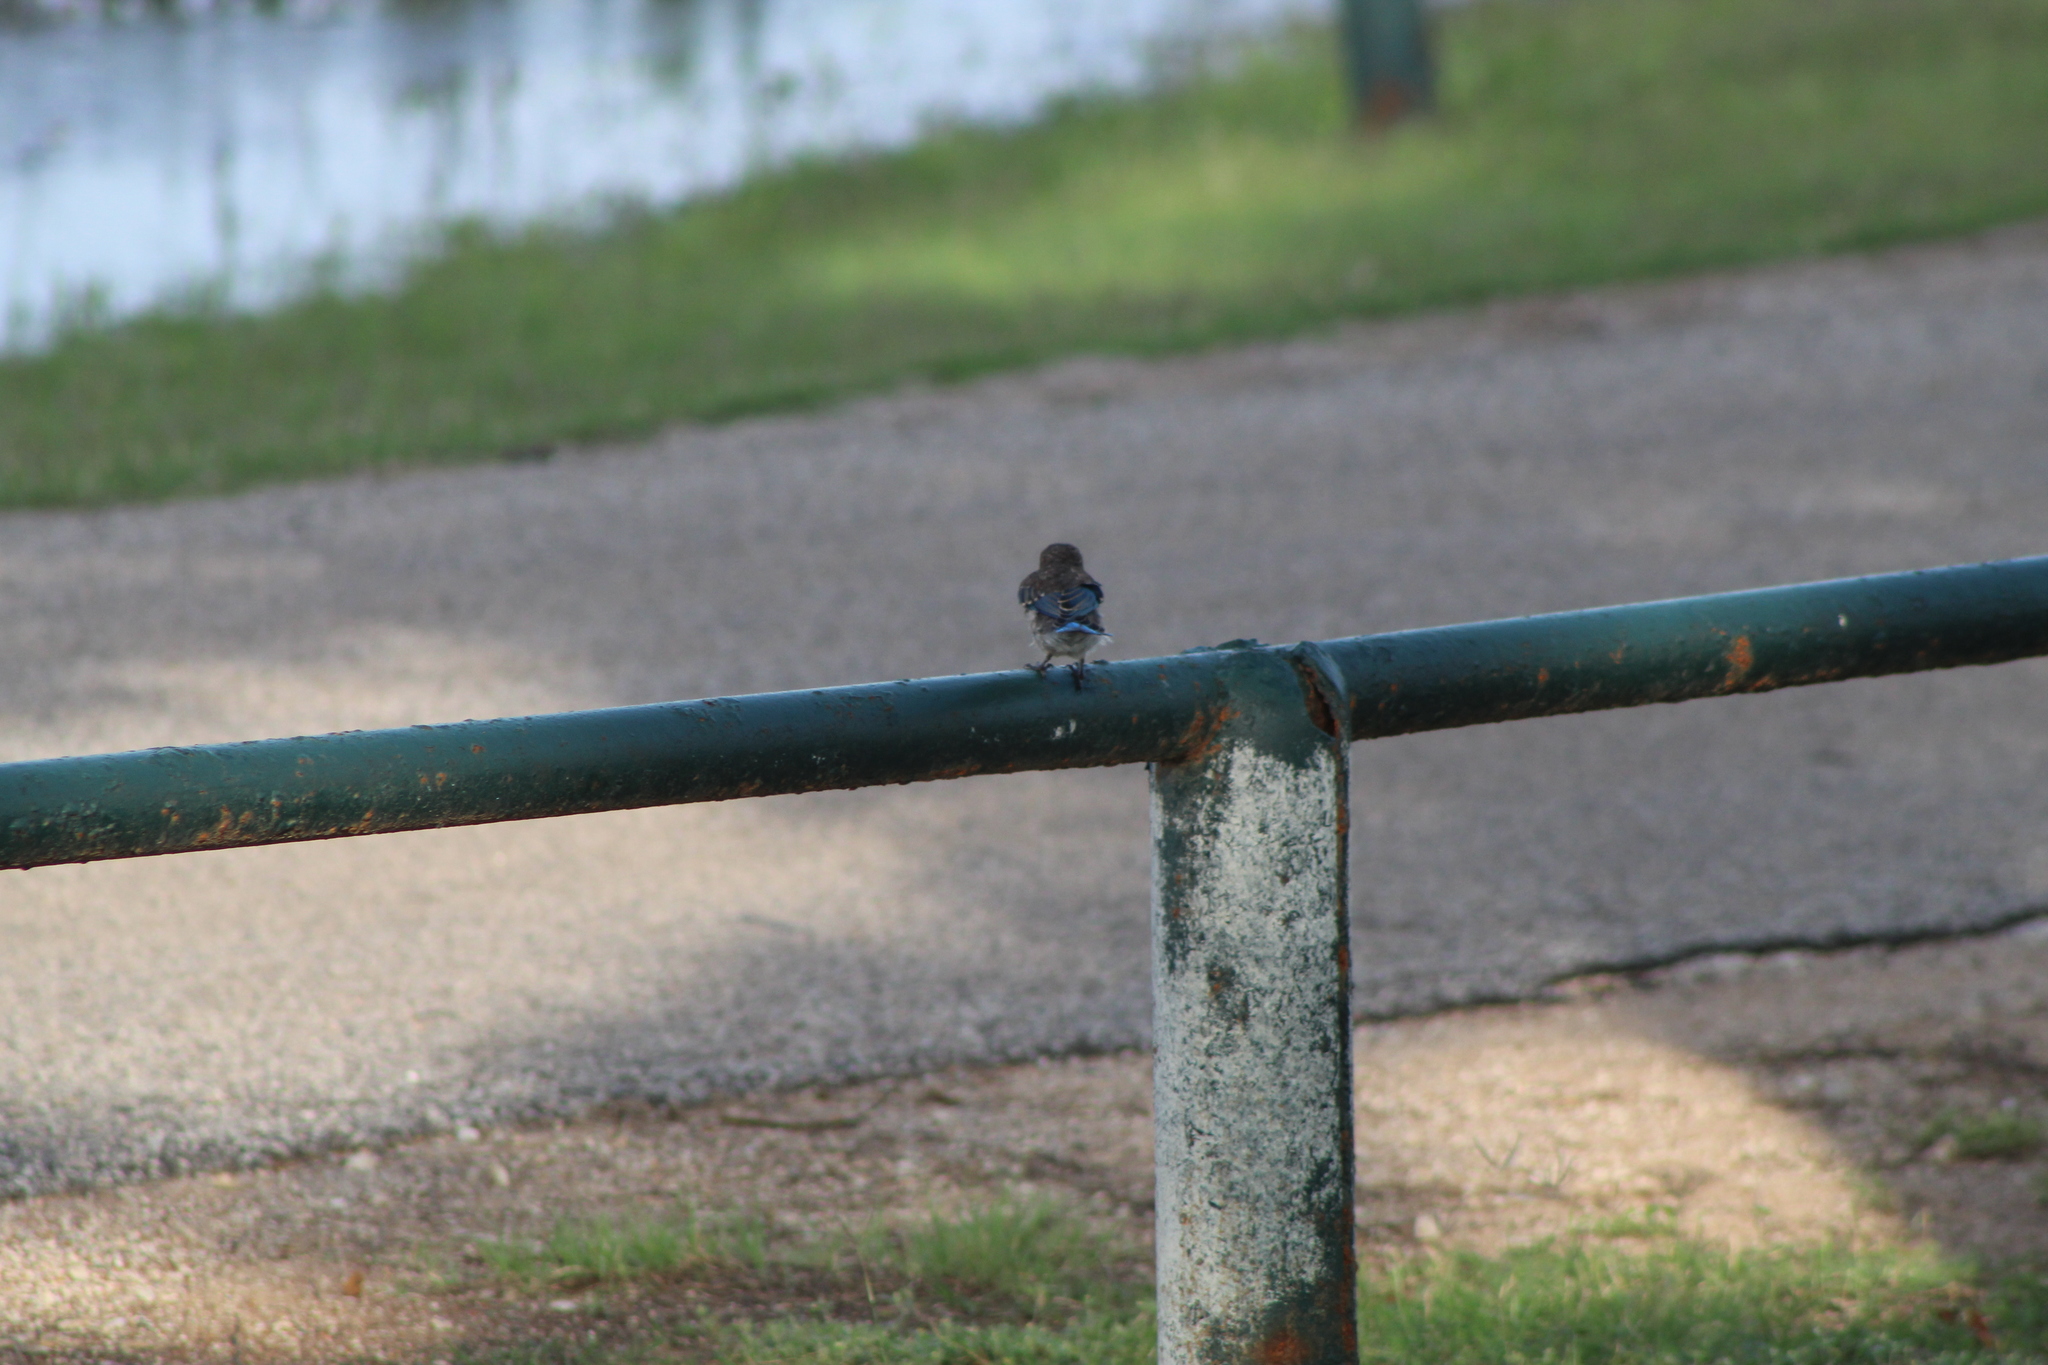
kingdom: Animalia
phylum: Chordata
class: Aves
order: Passeriformes
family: Turdidae
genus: Sialia
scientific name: Sialia sialis
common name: Eastern bluebird
